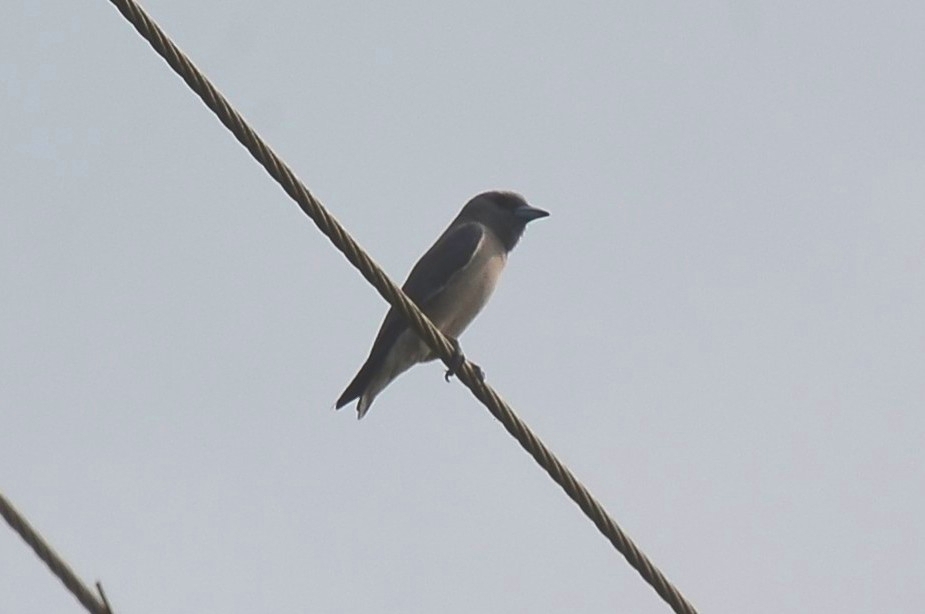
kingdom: Animalia
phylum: Chordata
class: Aves
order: Passeriformes
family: Artamidae
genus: Artamus
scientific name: Artamus fuscus
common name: Ashy woodswallow
